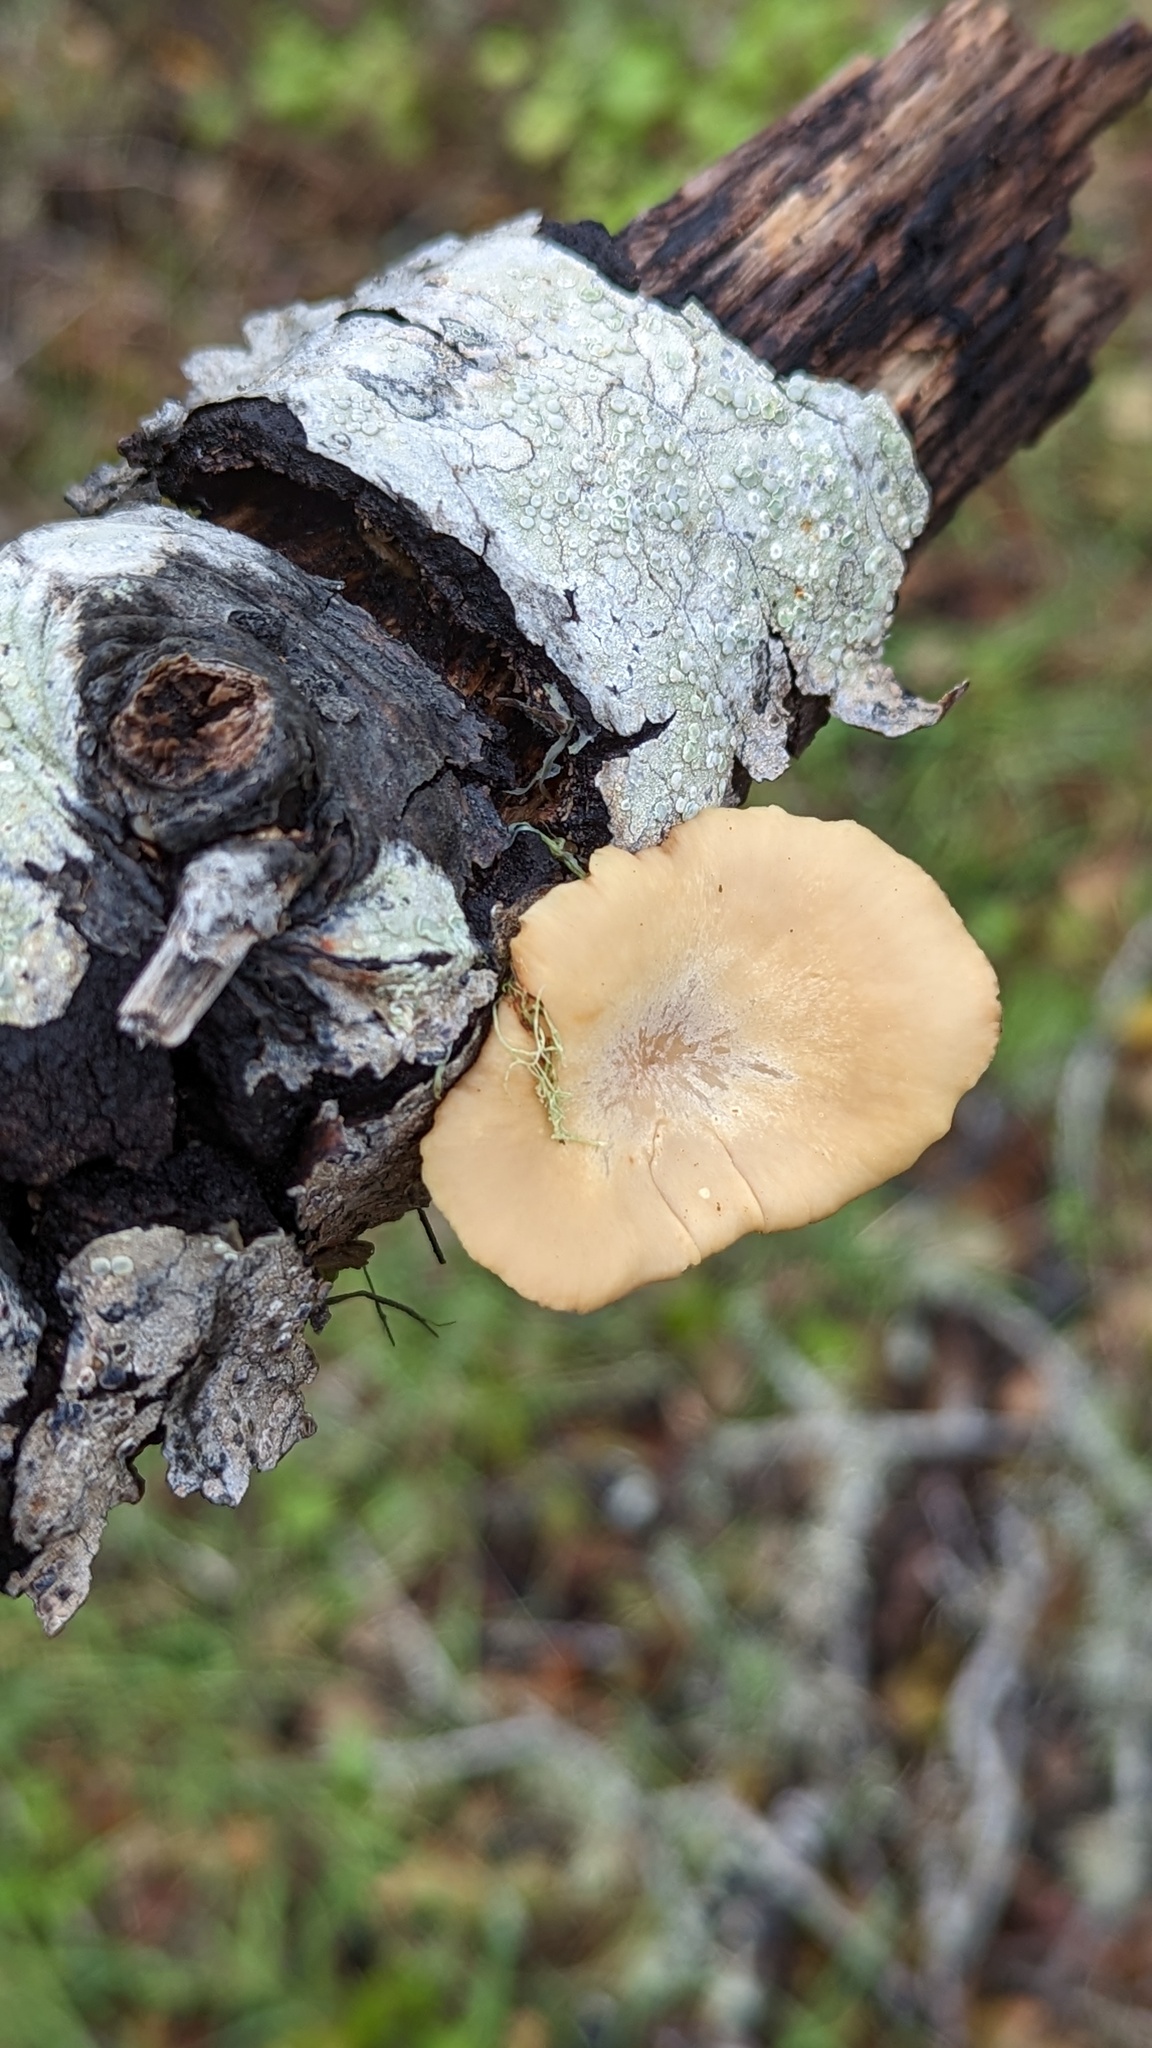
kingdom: Fungi
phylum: Basidiomycota
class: Agaricomycetes
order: Polyporales
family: Polyporaceae
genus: Cerioporus
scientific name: Cerioporus leptocephalus
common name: Blackfoot polypore
